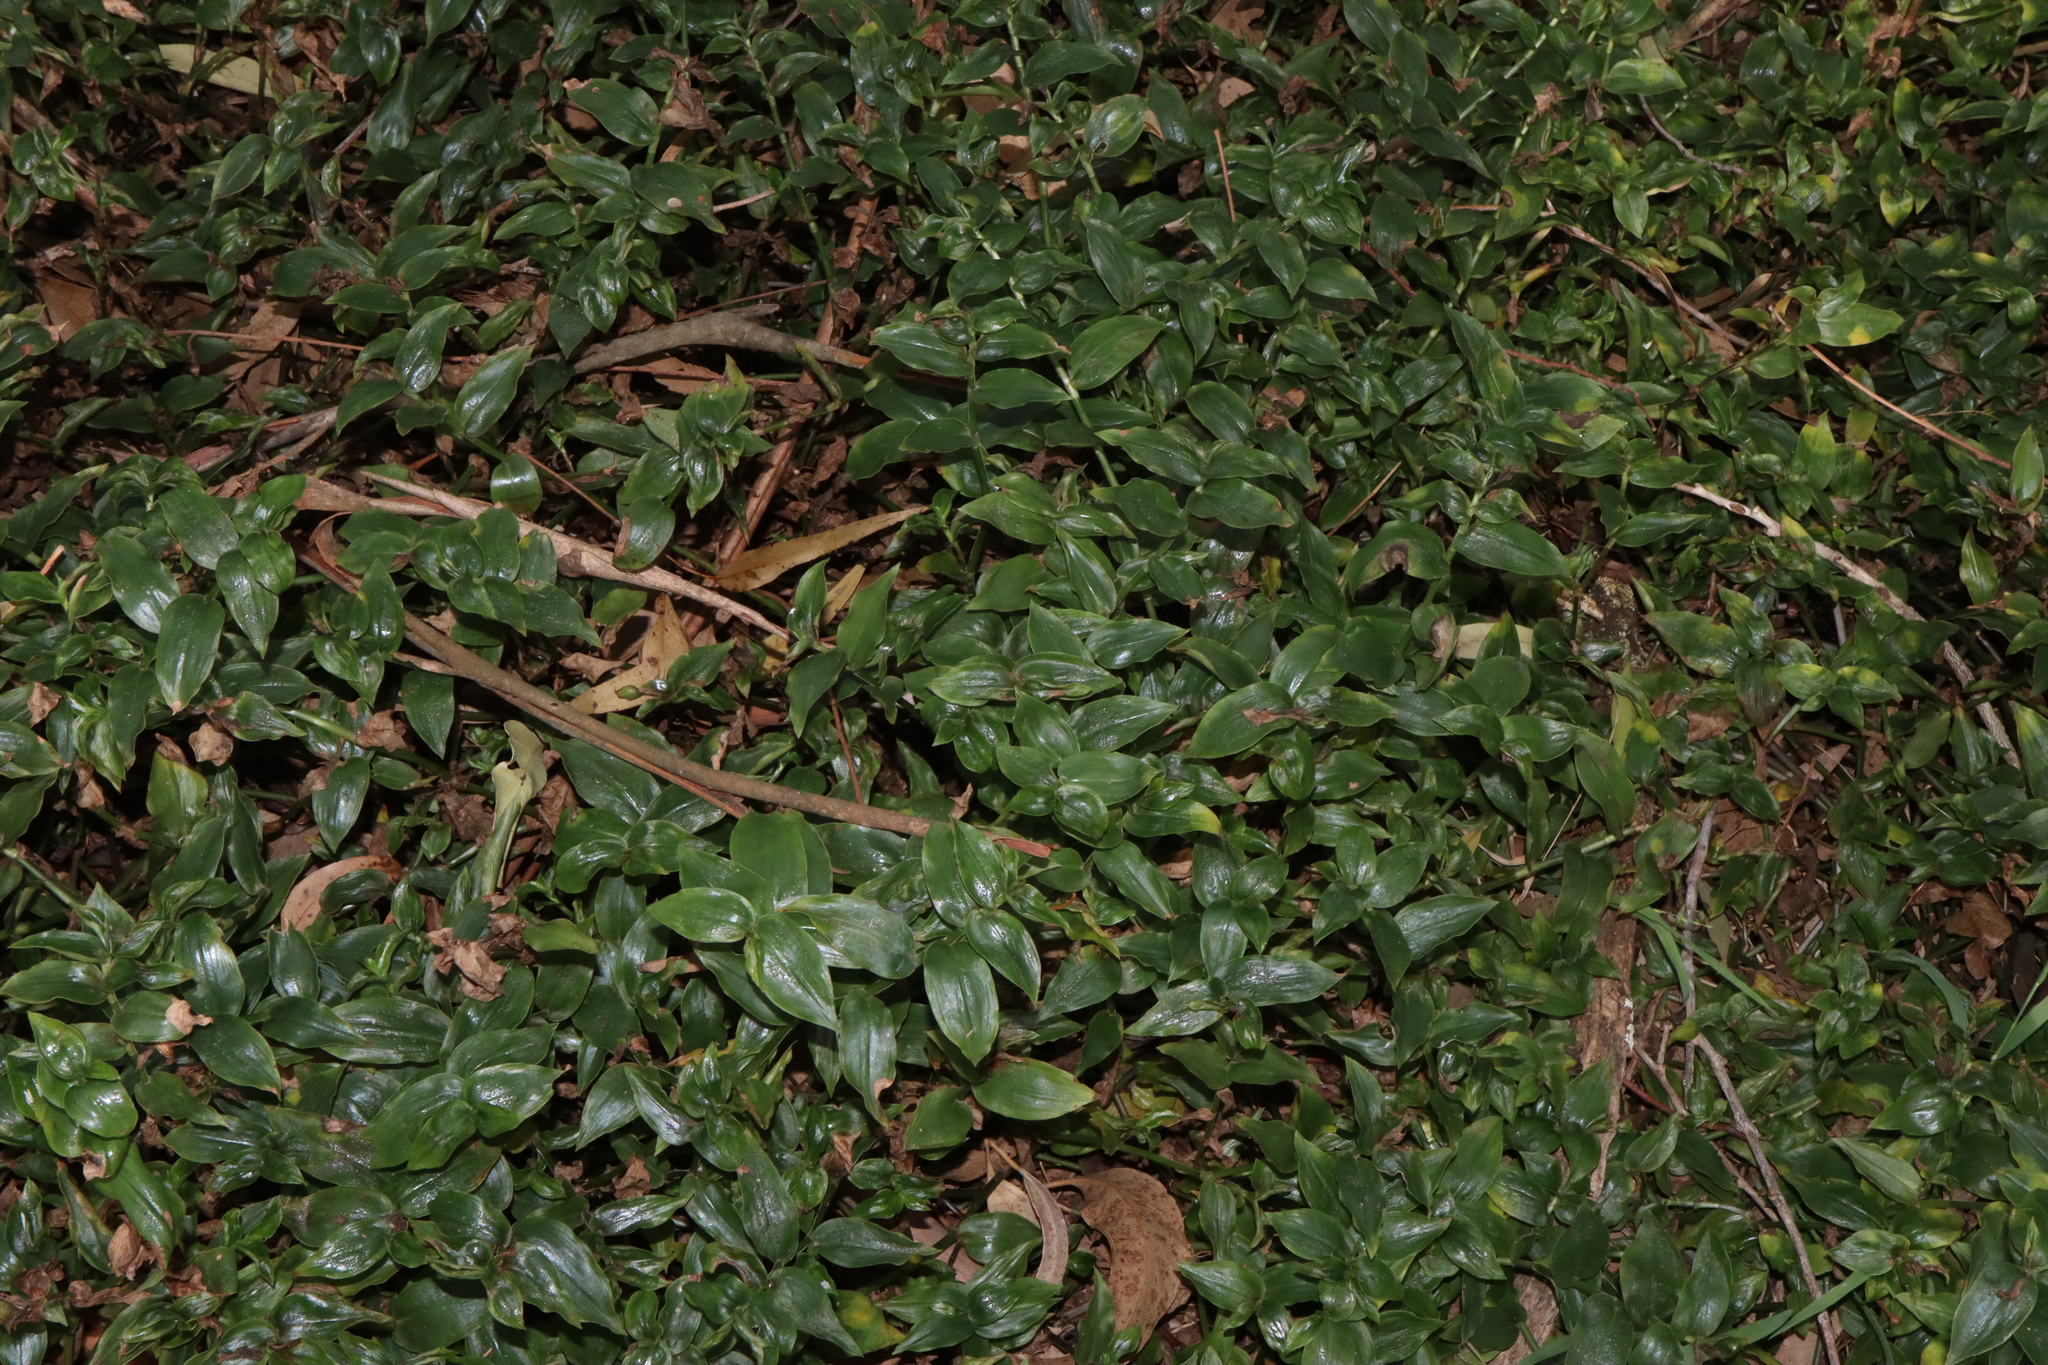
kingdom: Plantae
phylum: Tracheophyta
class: Liliopsida
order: Commelinales
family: Commelinaceae
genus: Tradescantia
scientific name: Tradescantia fluminensis
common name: Wandering-jew
